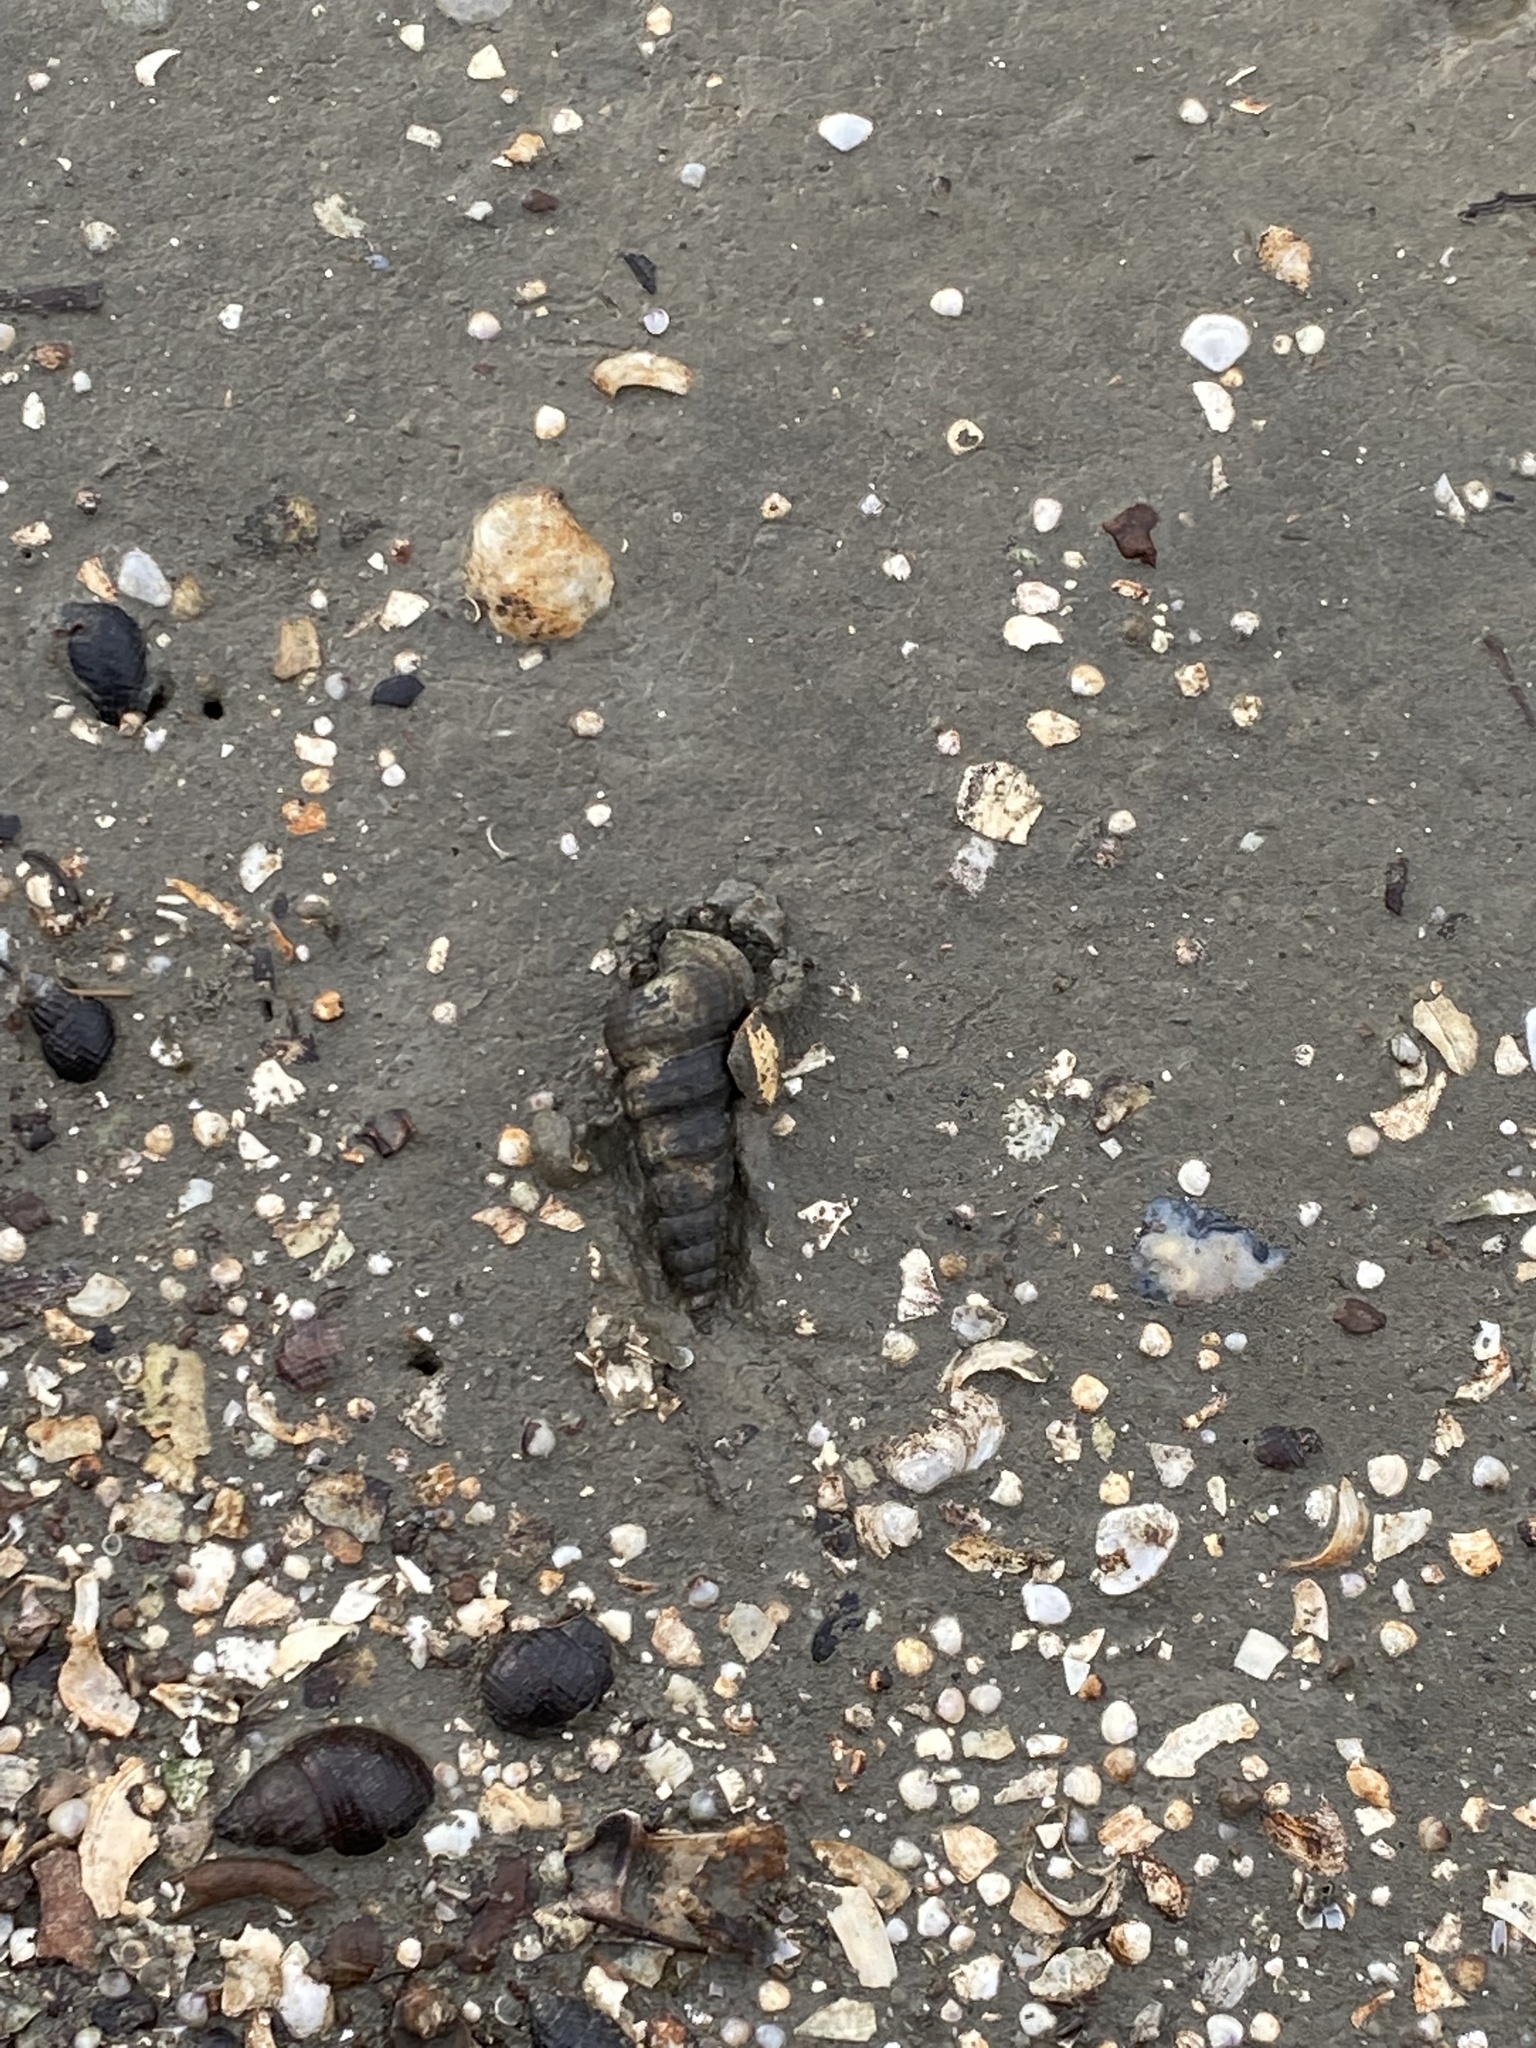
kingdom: Animalia
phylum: Mollusca
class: Gastropoda
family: Potamididae
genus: Cerithideopsis
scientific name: Cerithideopsis californica
